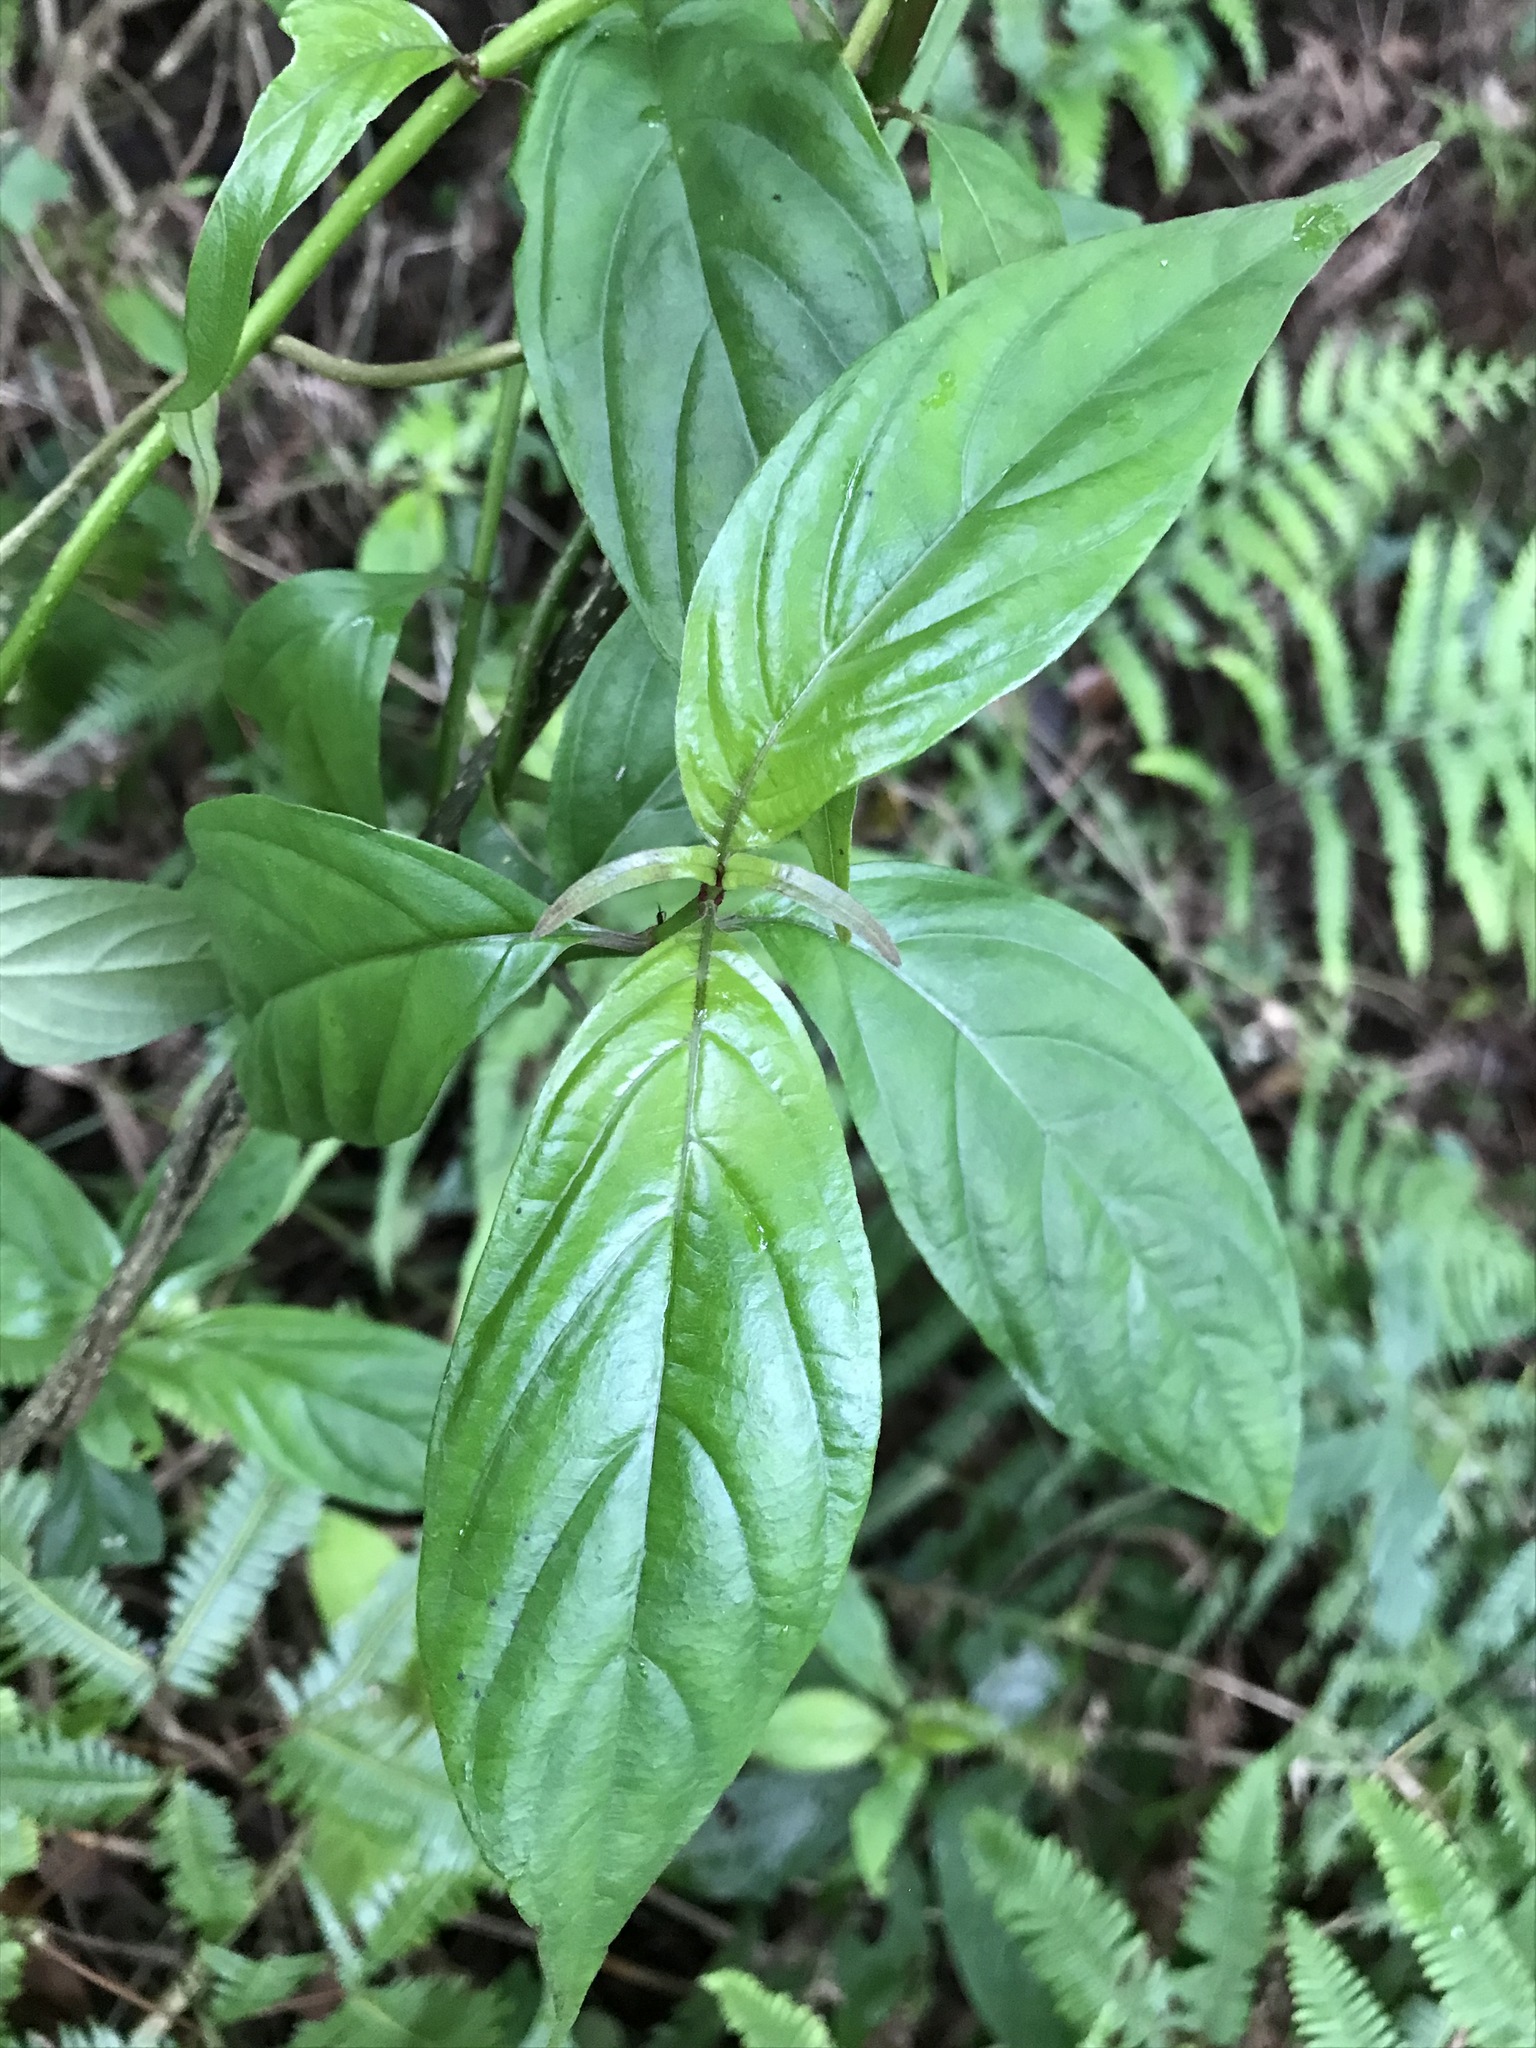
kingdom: Plantae
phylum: Tracheophyta
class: Magnoliopsida
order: Gentianales
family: Rubiaceae
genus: Mussaenda
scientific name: Mussaenda pubescens
